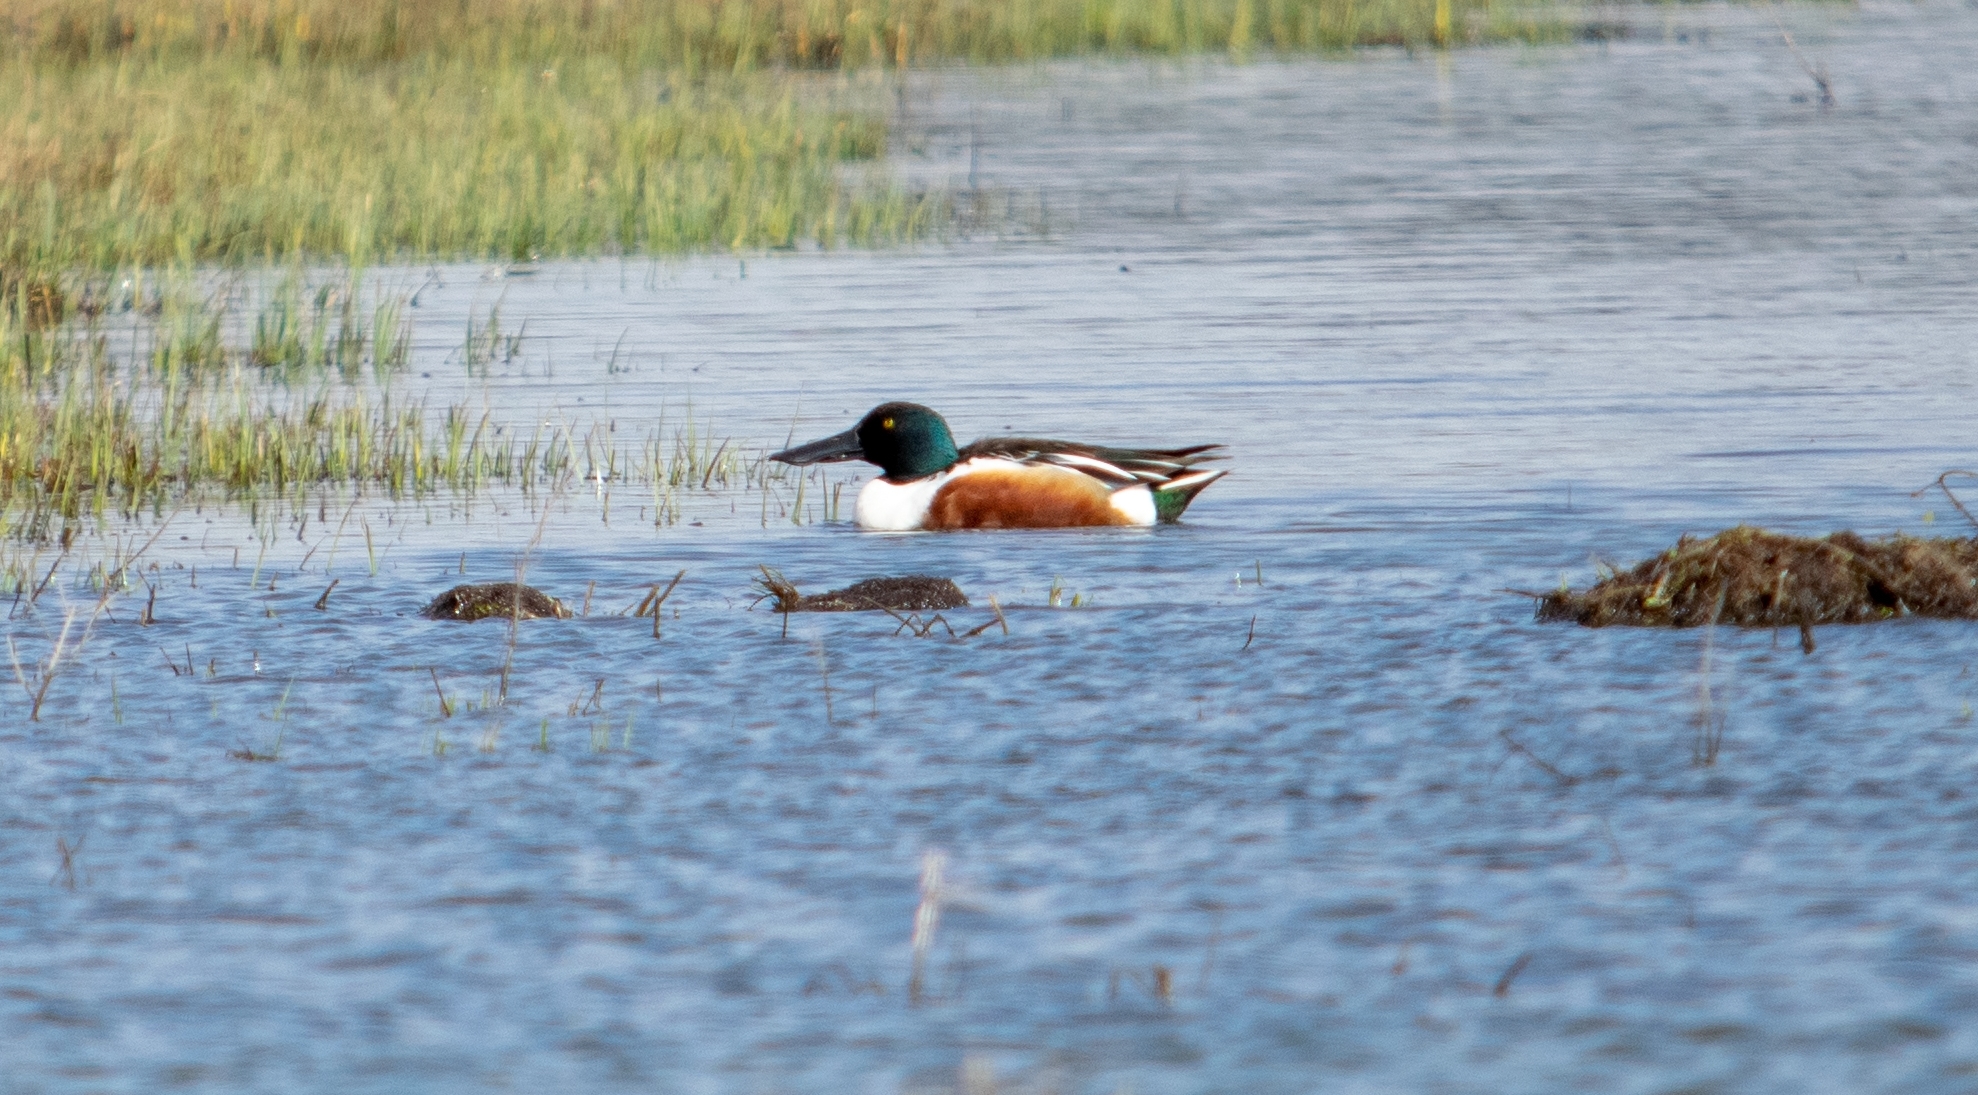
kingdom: Animalia
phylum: Chordata
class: Aves
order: Anseriformes
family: Anatidae
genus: Spatula
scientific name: Spatula clypeata
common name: Northern shoveler
